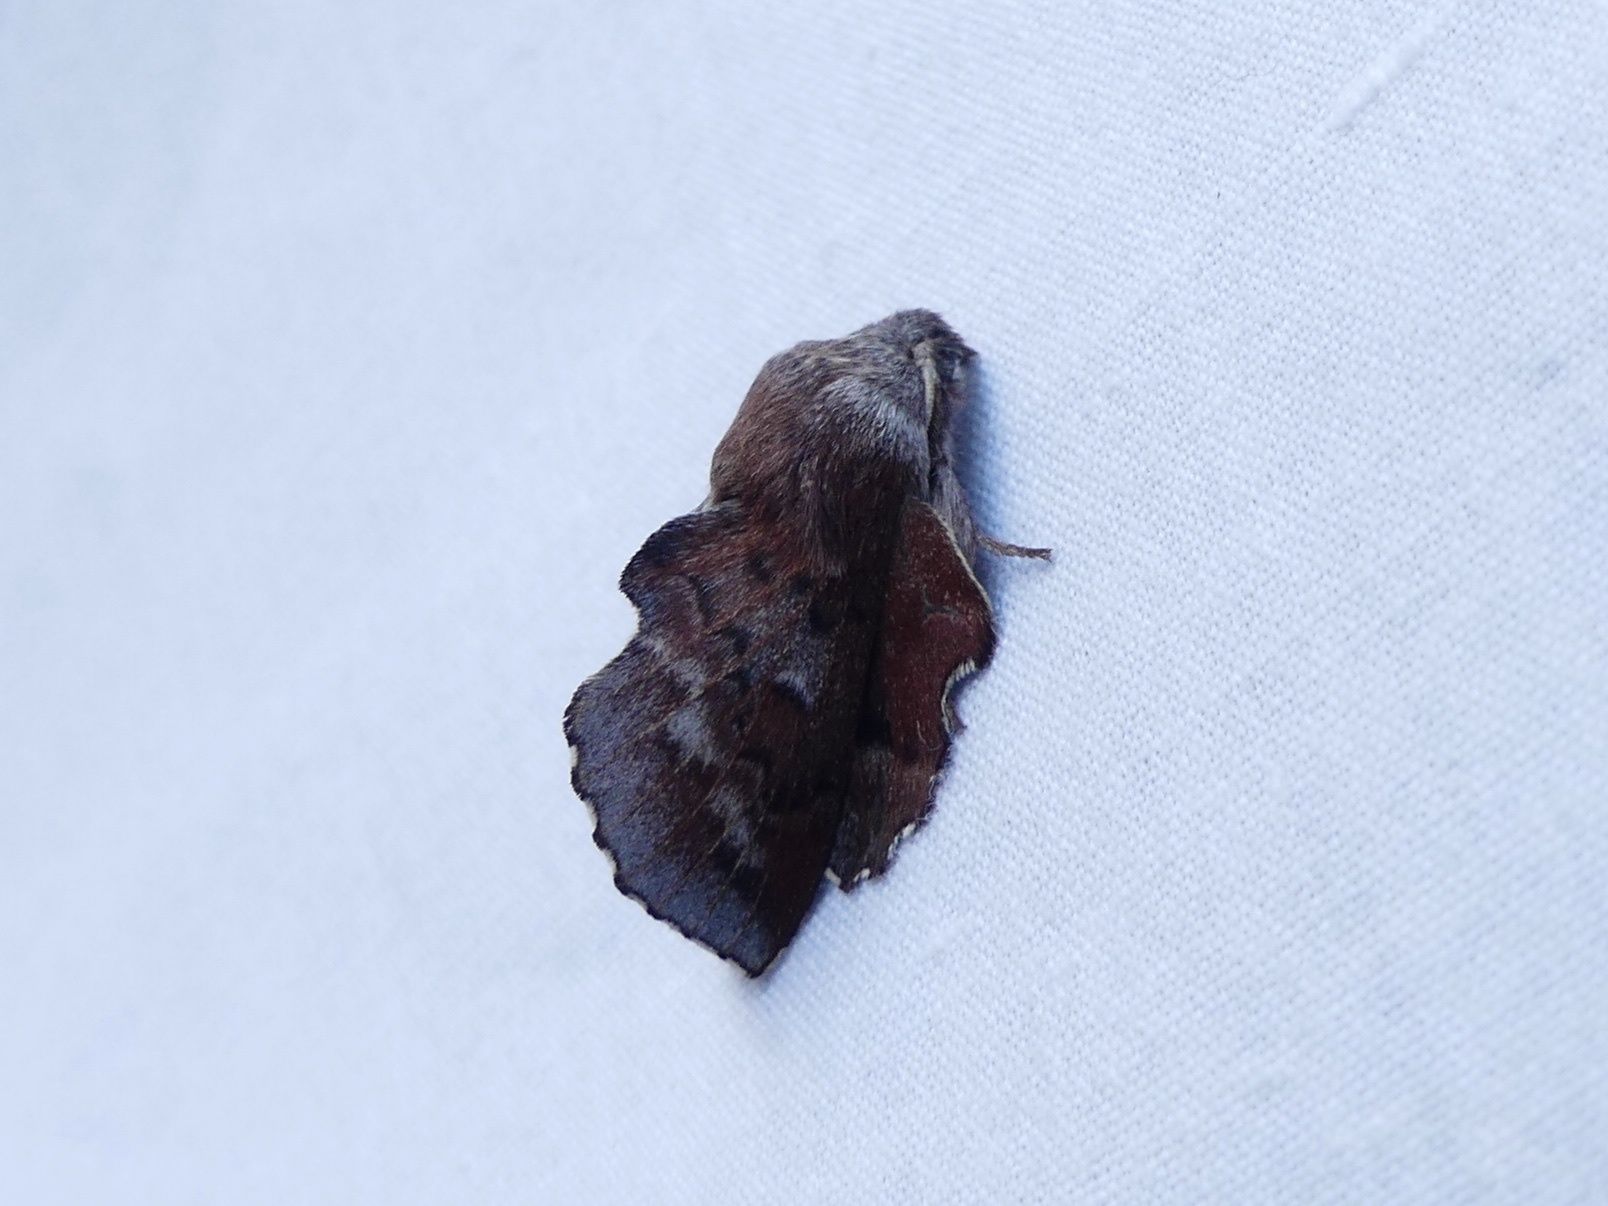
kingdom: Animalia
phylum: Arthropoda
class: Insecta
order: Lepidoptera
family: Lasiocampidae
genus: Phyllodesma
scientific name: Phyllodesma americana
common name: American lappet moth
